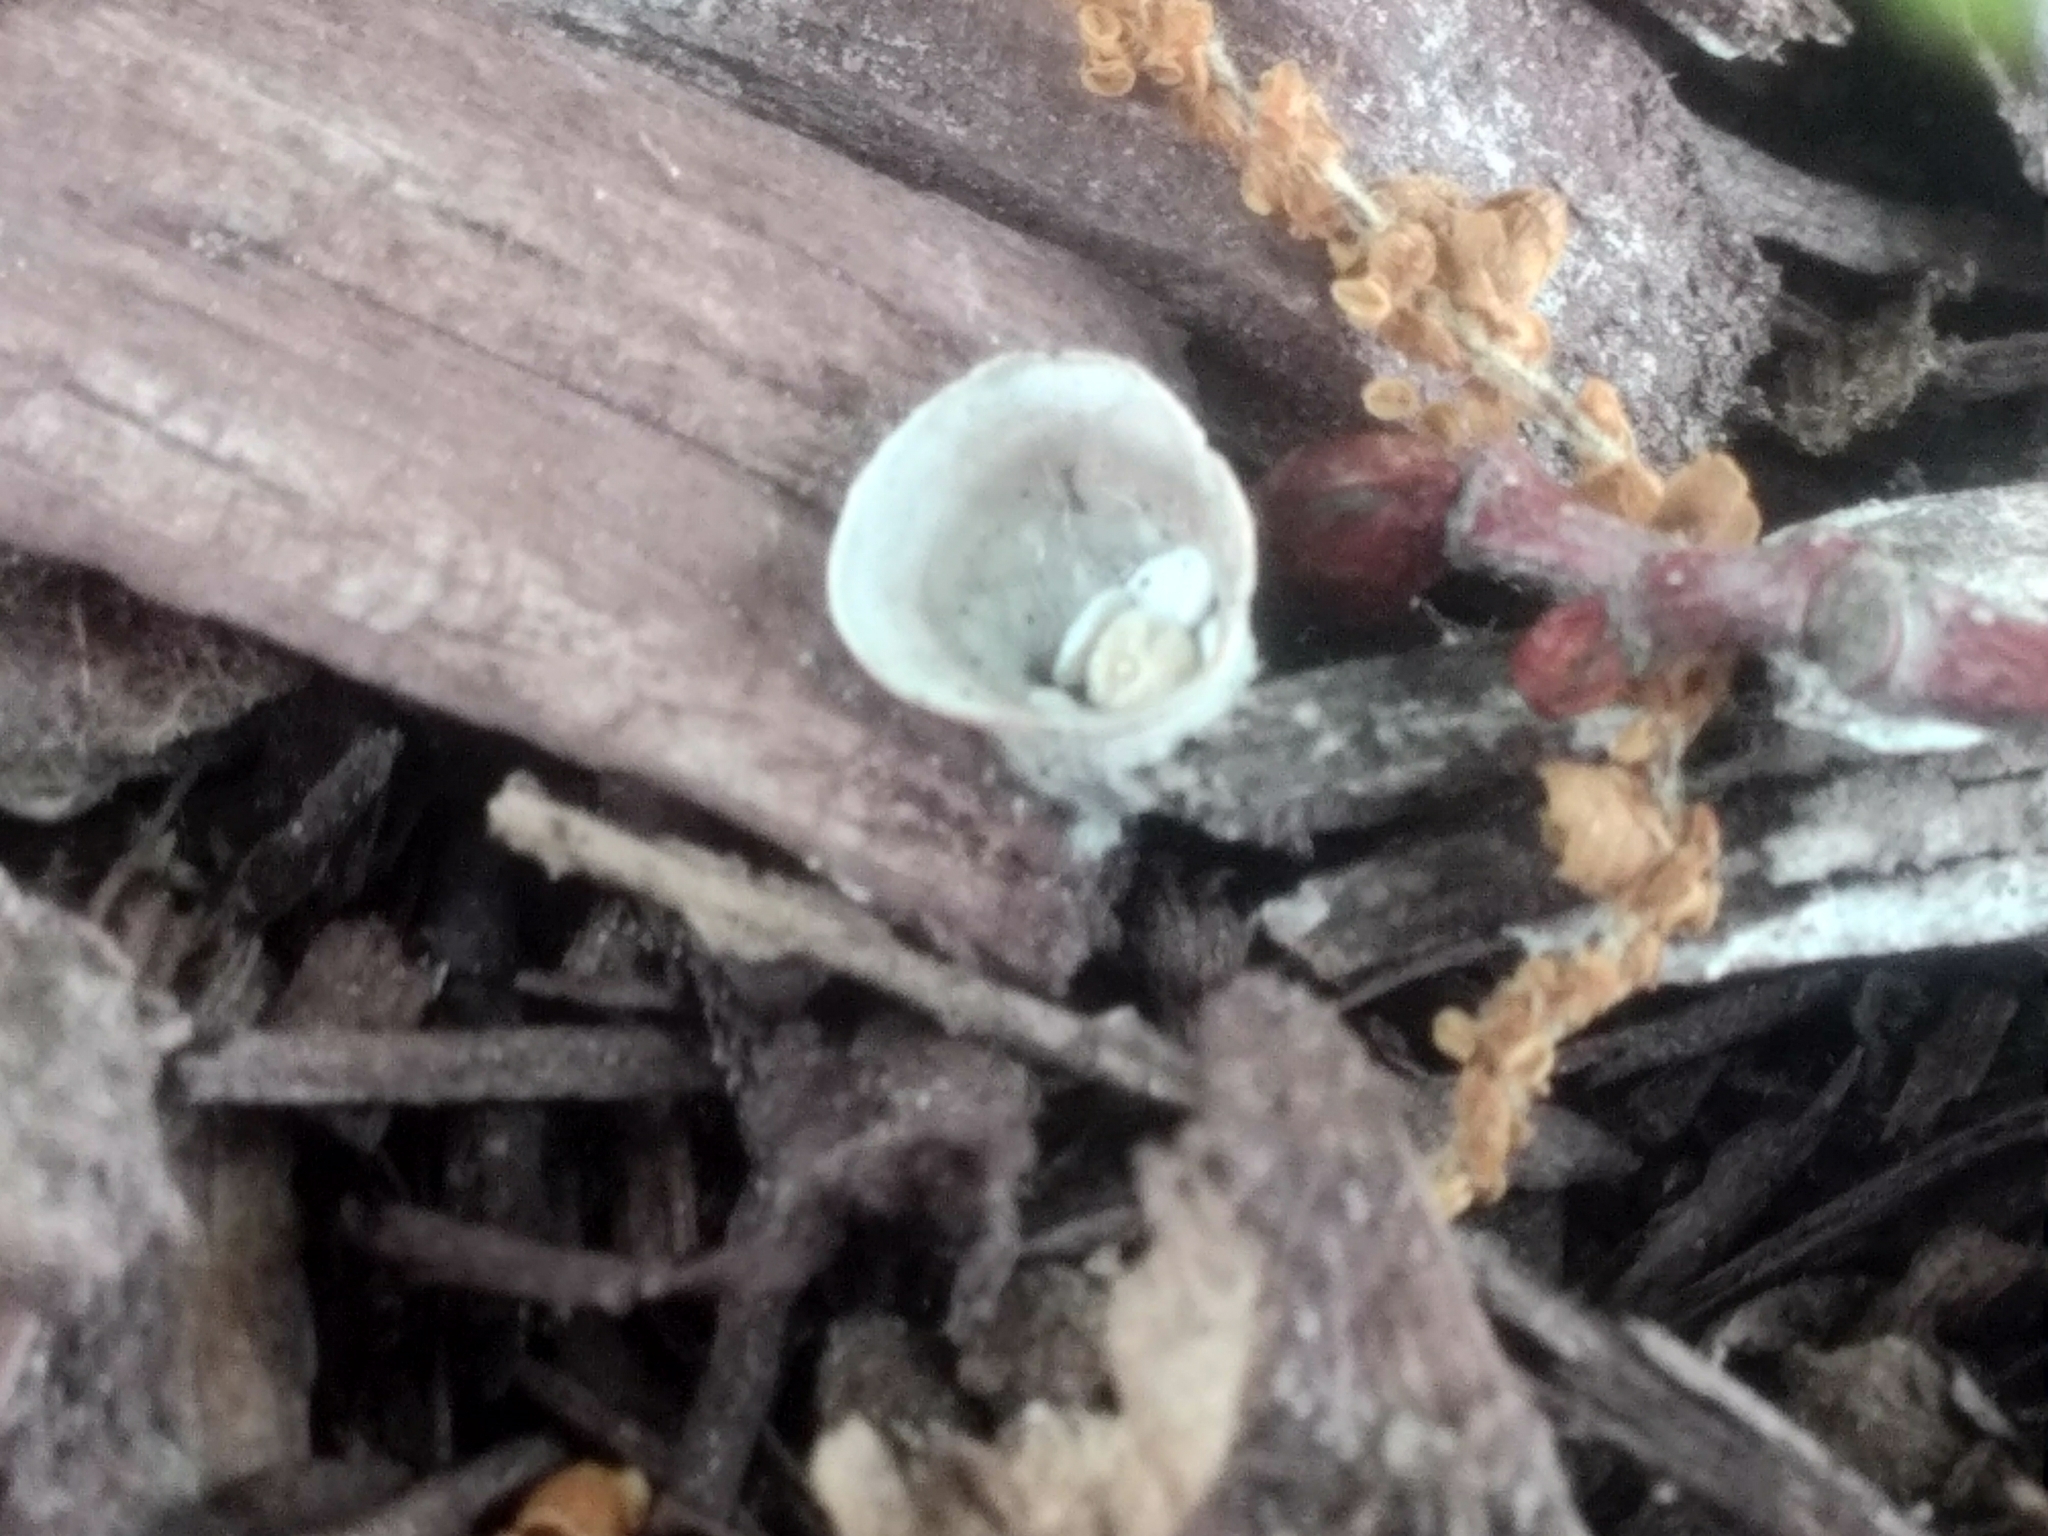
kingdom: Fungi
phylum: Basidiomycota
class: Agaricomycetes
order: Agaricales
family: Nidulariaceae
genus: Crucibulum
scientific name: Crucibulum laeve
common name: Common bird's nest
